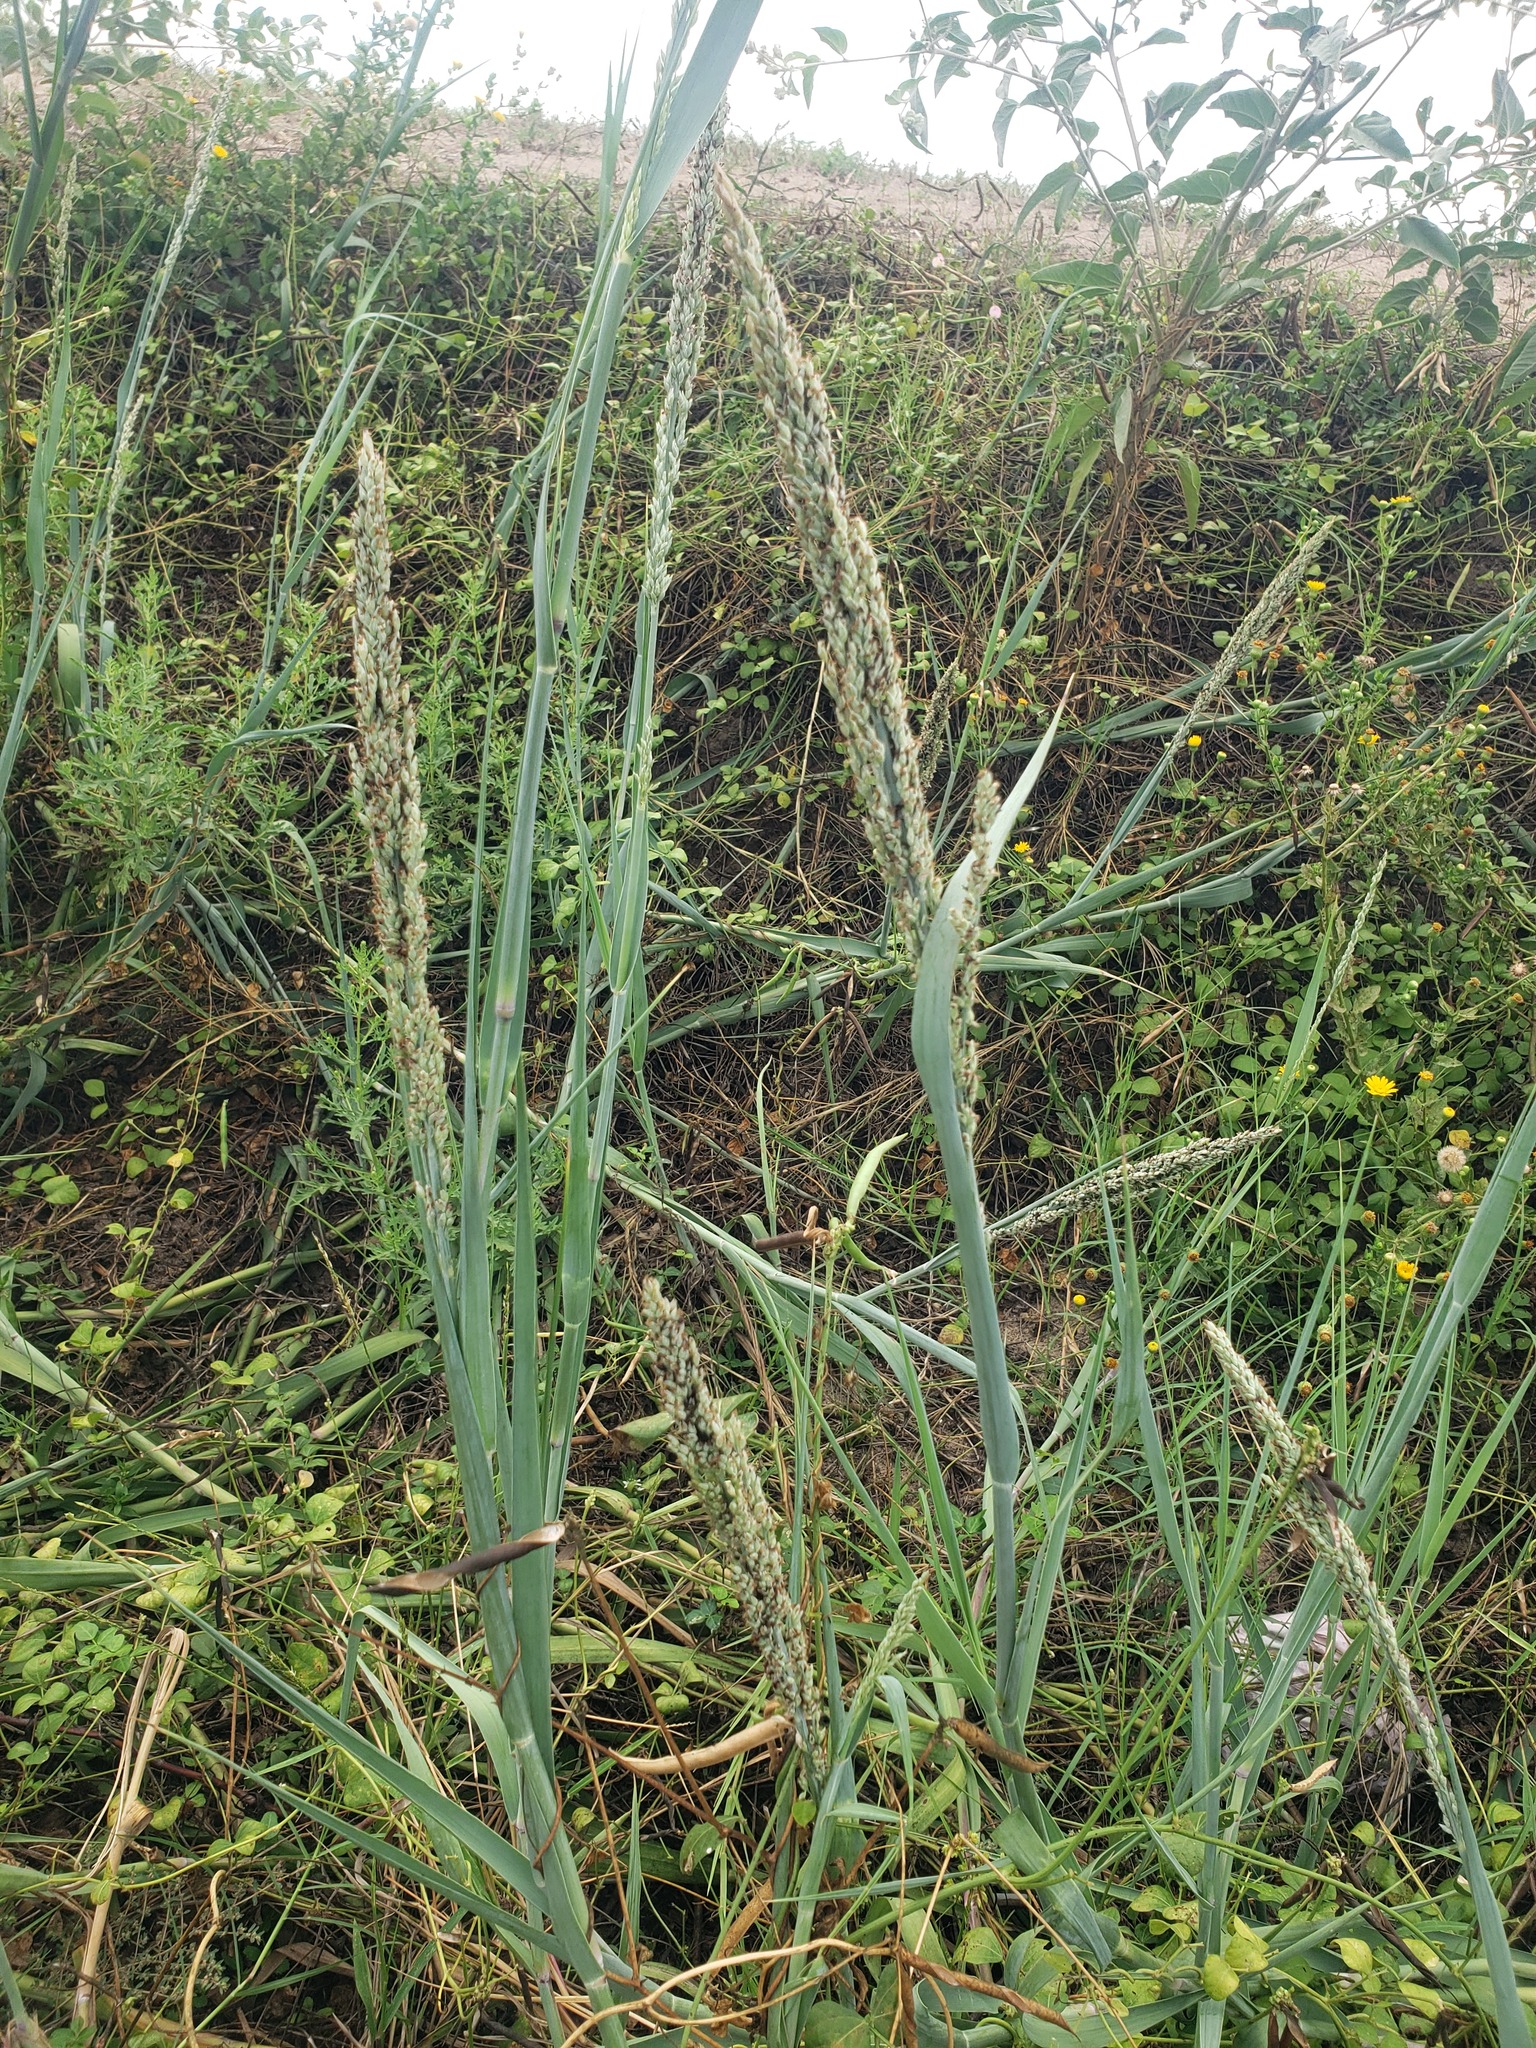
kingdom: Plantae
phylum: Tracheophyta
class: Liliopsida
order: Poales
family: Poaceae
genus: Panicum
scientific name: Panicum amarum
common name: Bitter panicum
